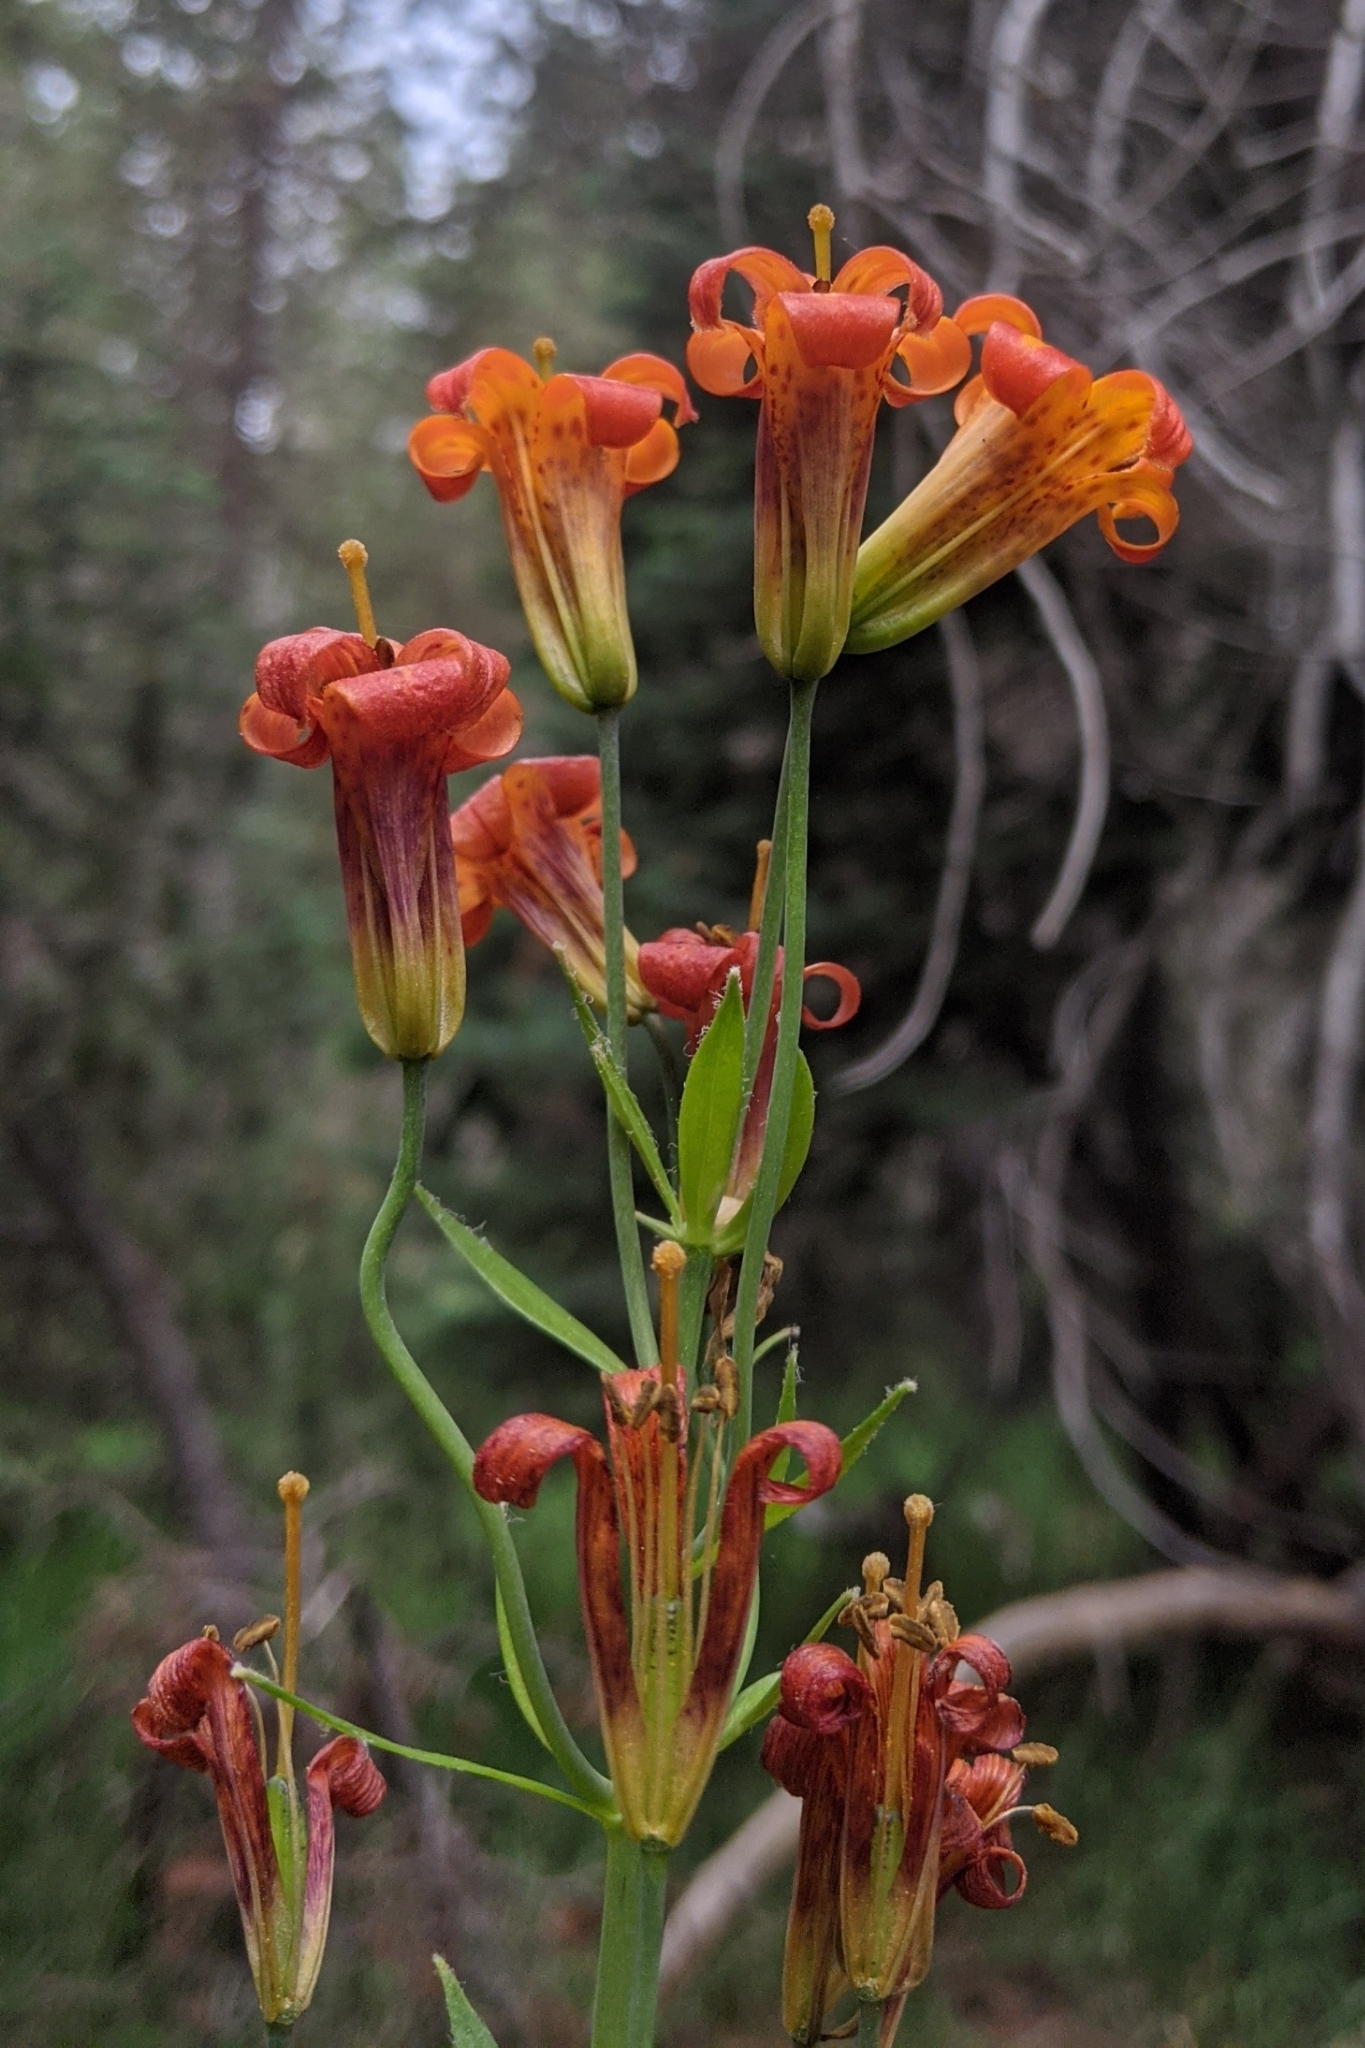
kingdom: Plantae
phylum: Tracheophyta
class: Liliopsida
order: Liliales
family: Liliaceae
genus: Lilium
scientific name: Lilium parvum
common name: Alpine lily
